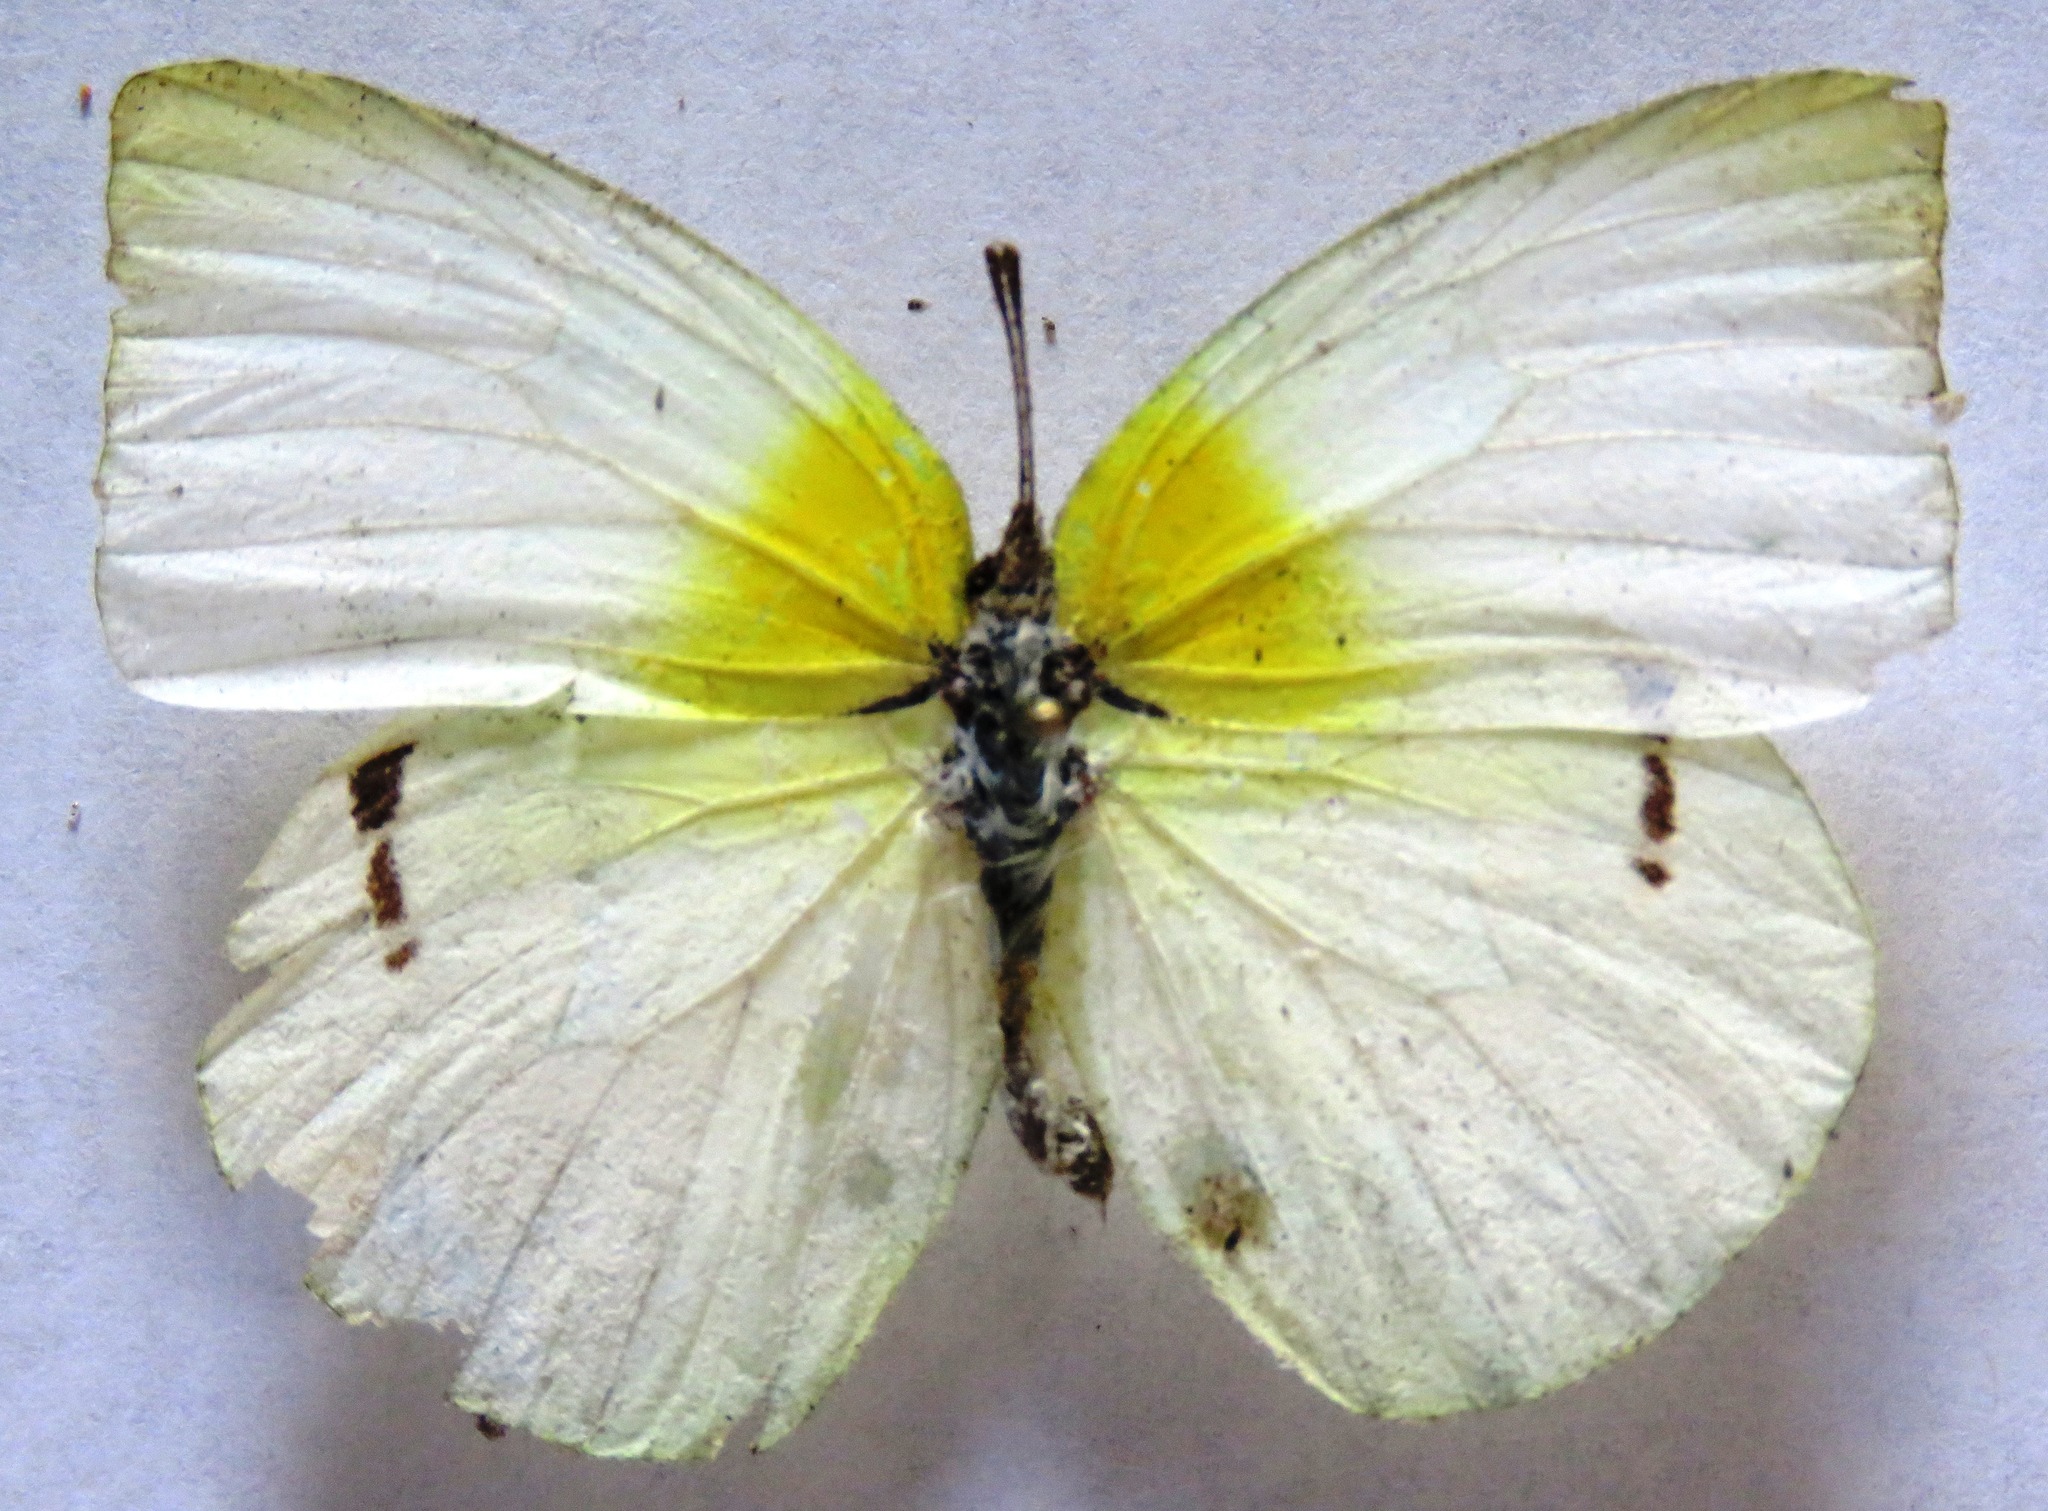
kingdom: Animalia
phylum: Arthropoda
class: Insecta
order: Lepidoptera
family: Pieridae
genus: Kricogonia
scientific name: Kricogonia lyside
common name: Guayacan sulphur,
